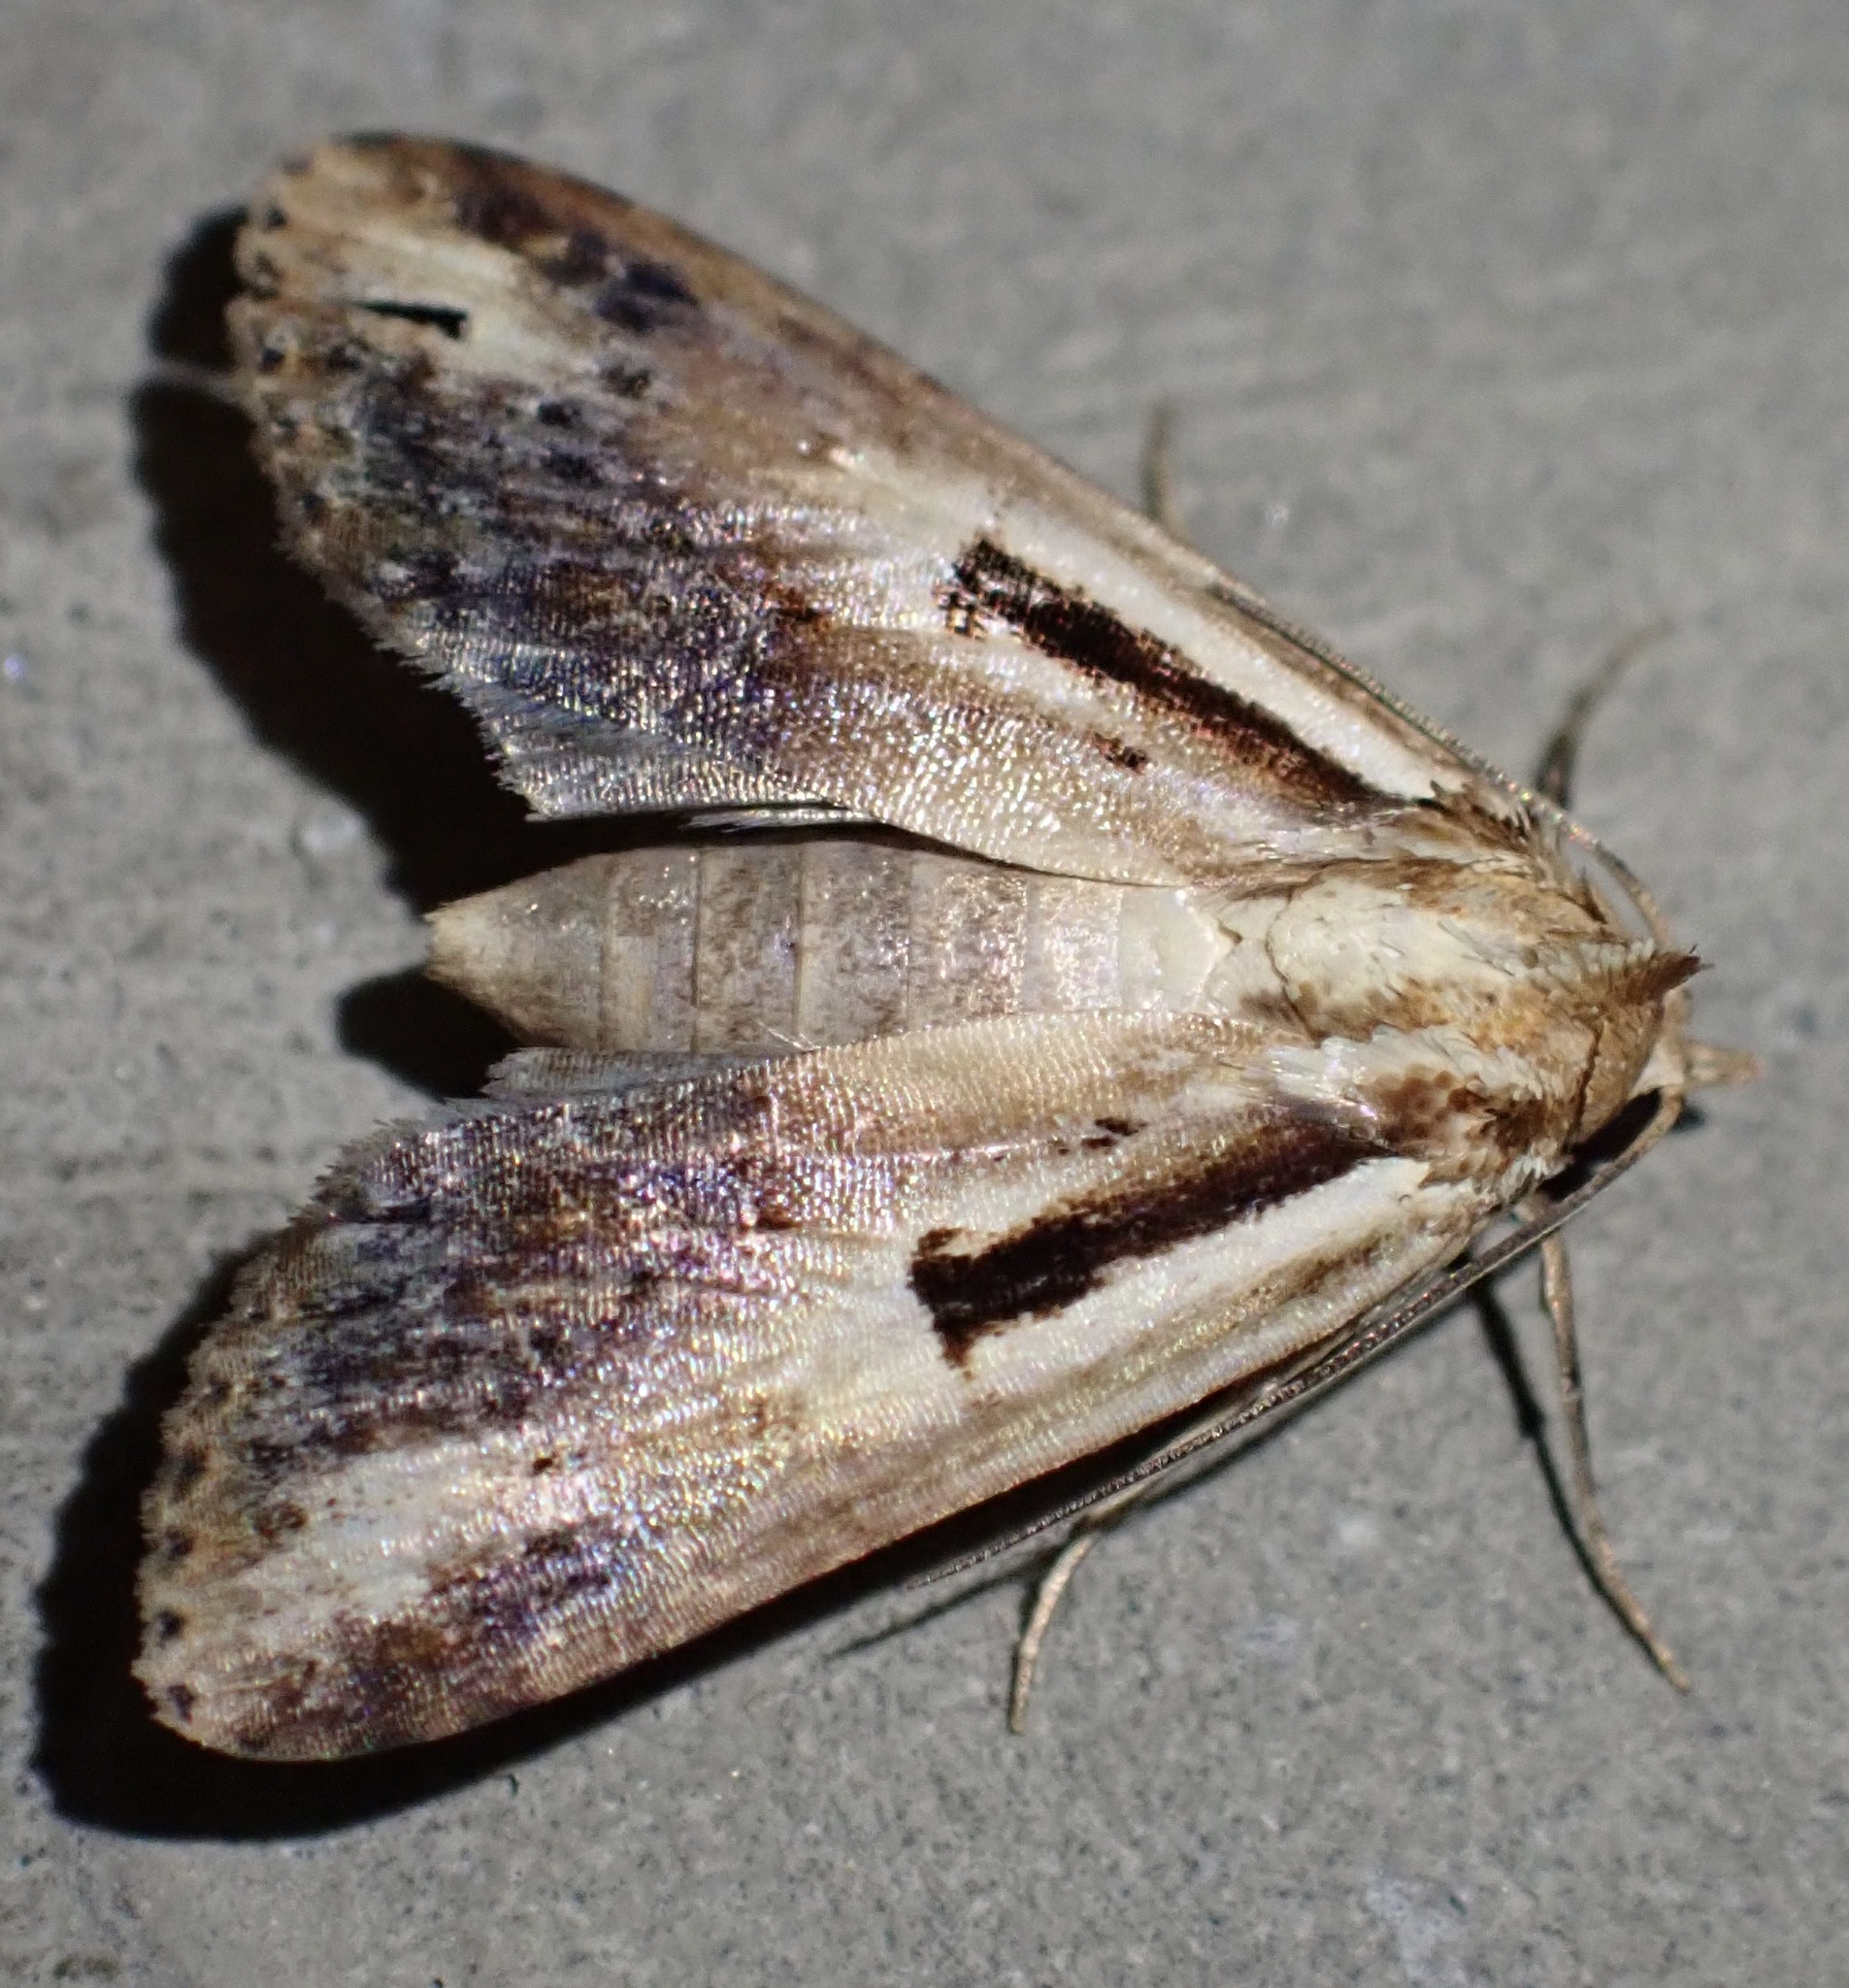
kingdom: Animalia
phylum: Arthropoda
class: Insecta
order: Lepidoptera
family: Euteliidae
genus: Gyrtona
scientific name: Gyrtona mediolineata
